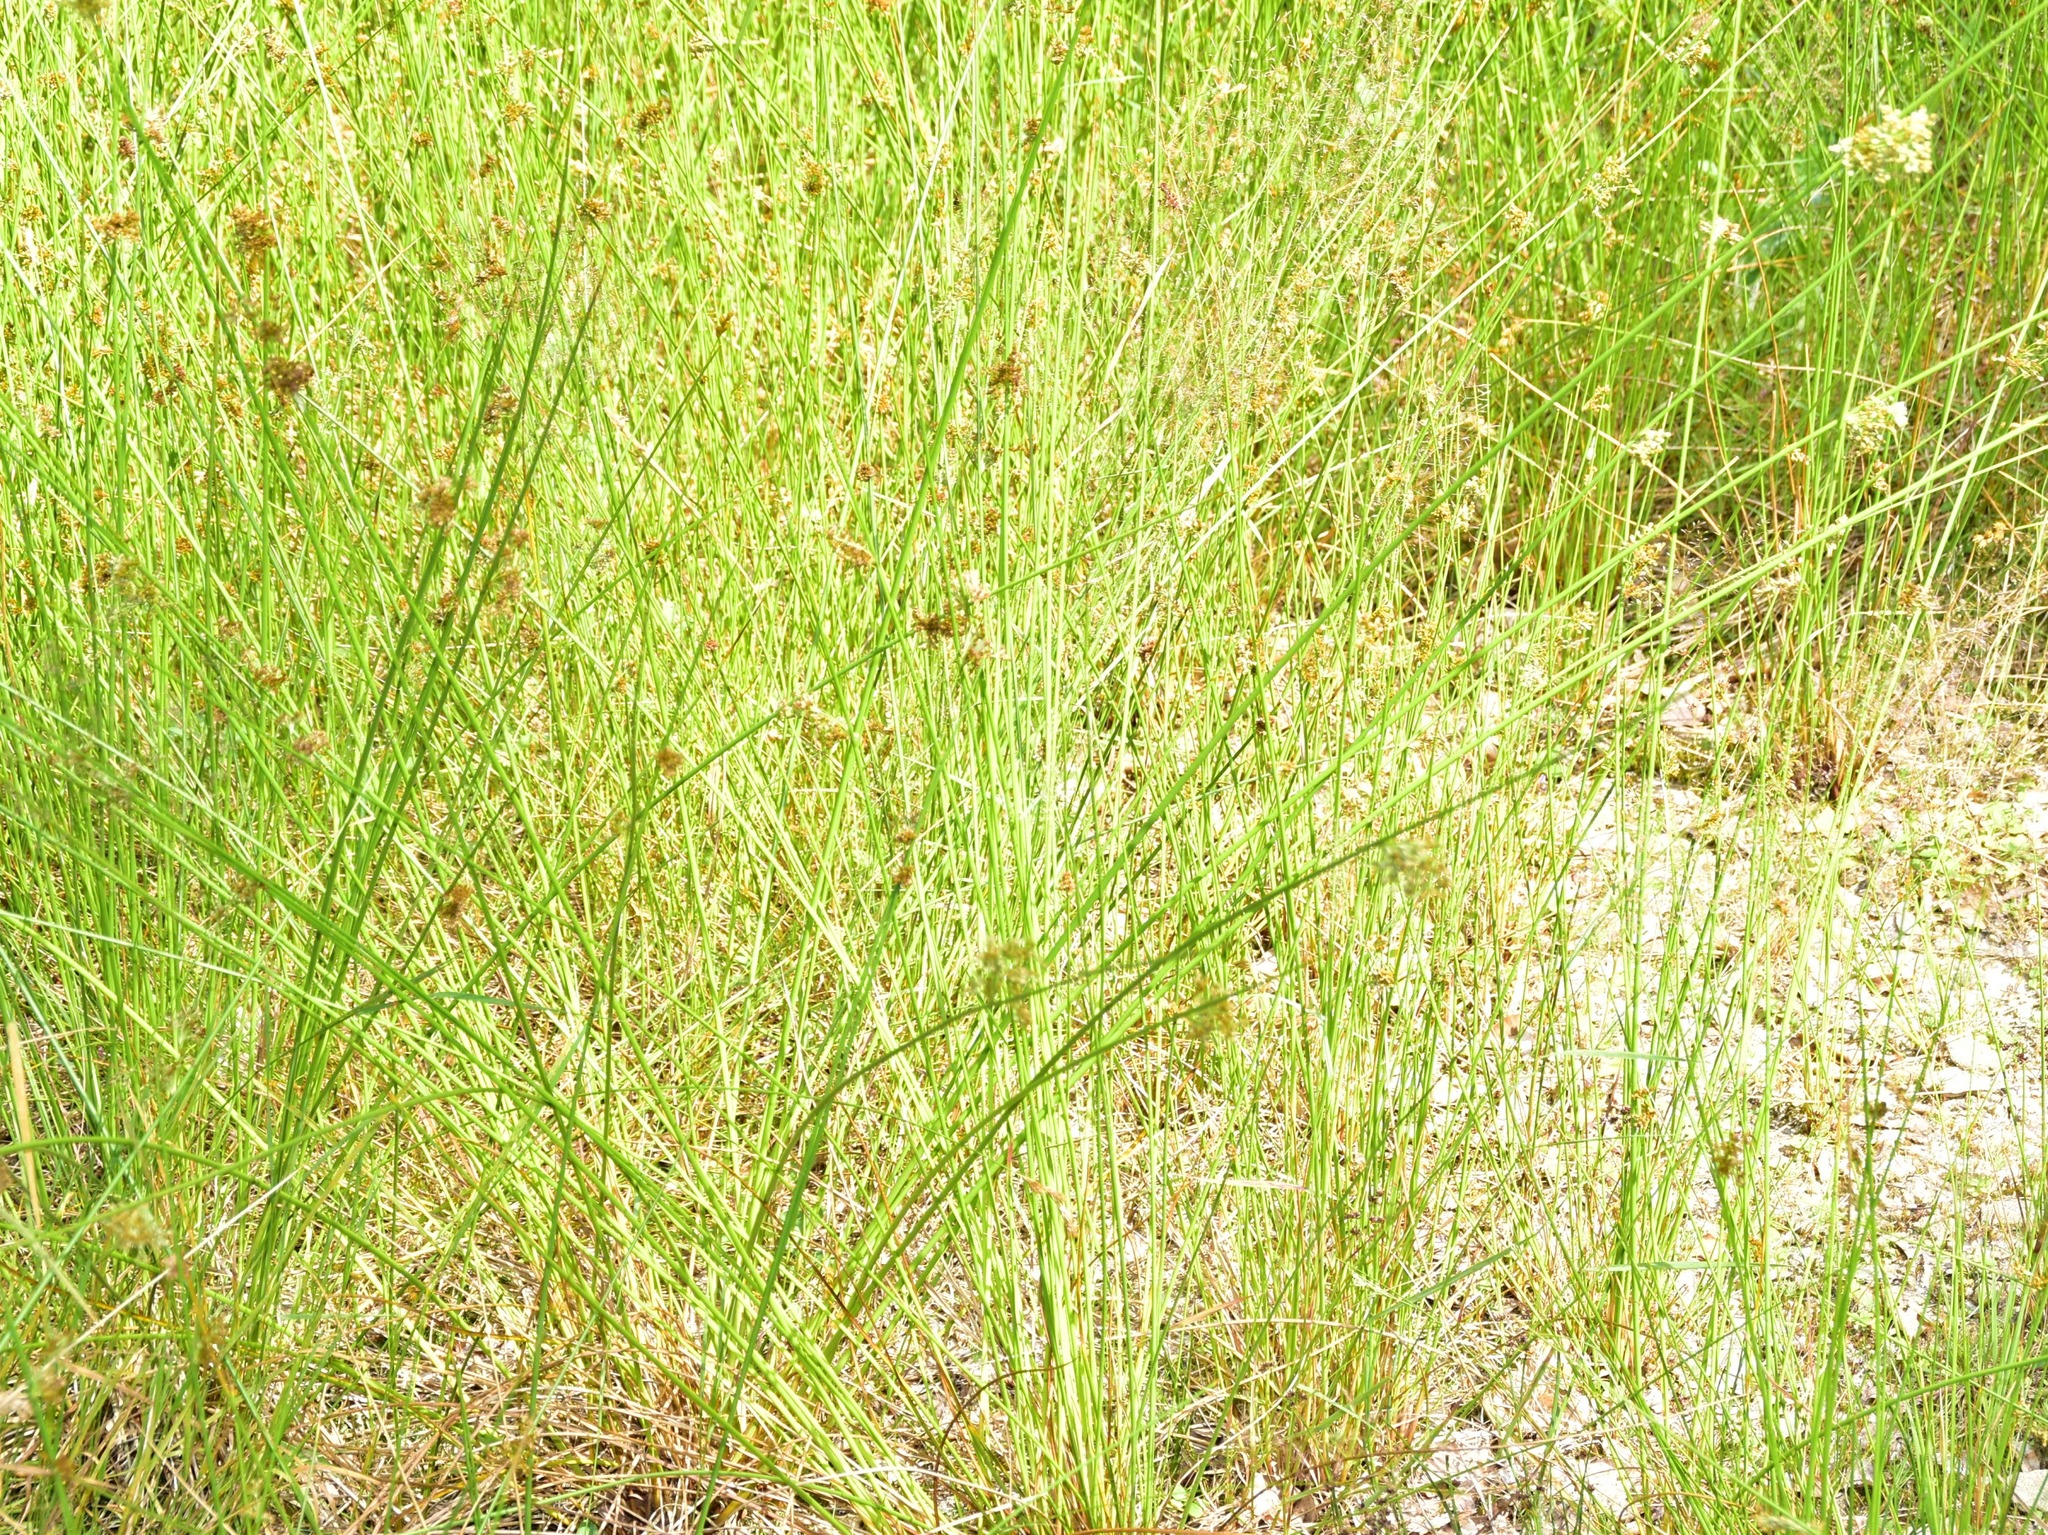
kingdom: Plantae
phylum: Tracheophyta
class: Liliopsida
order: Poales
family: Juncaceae
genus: Juncus
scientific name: Juncus effusus
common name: Soft rush
